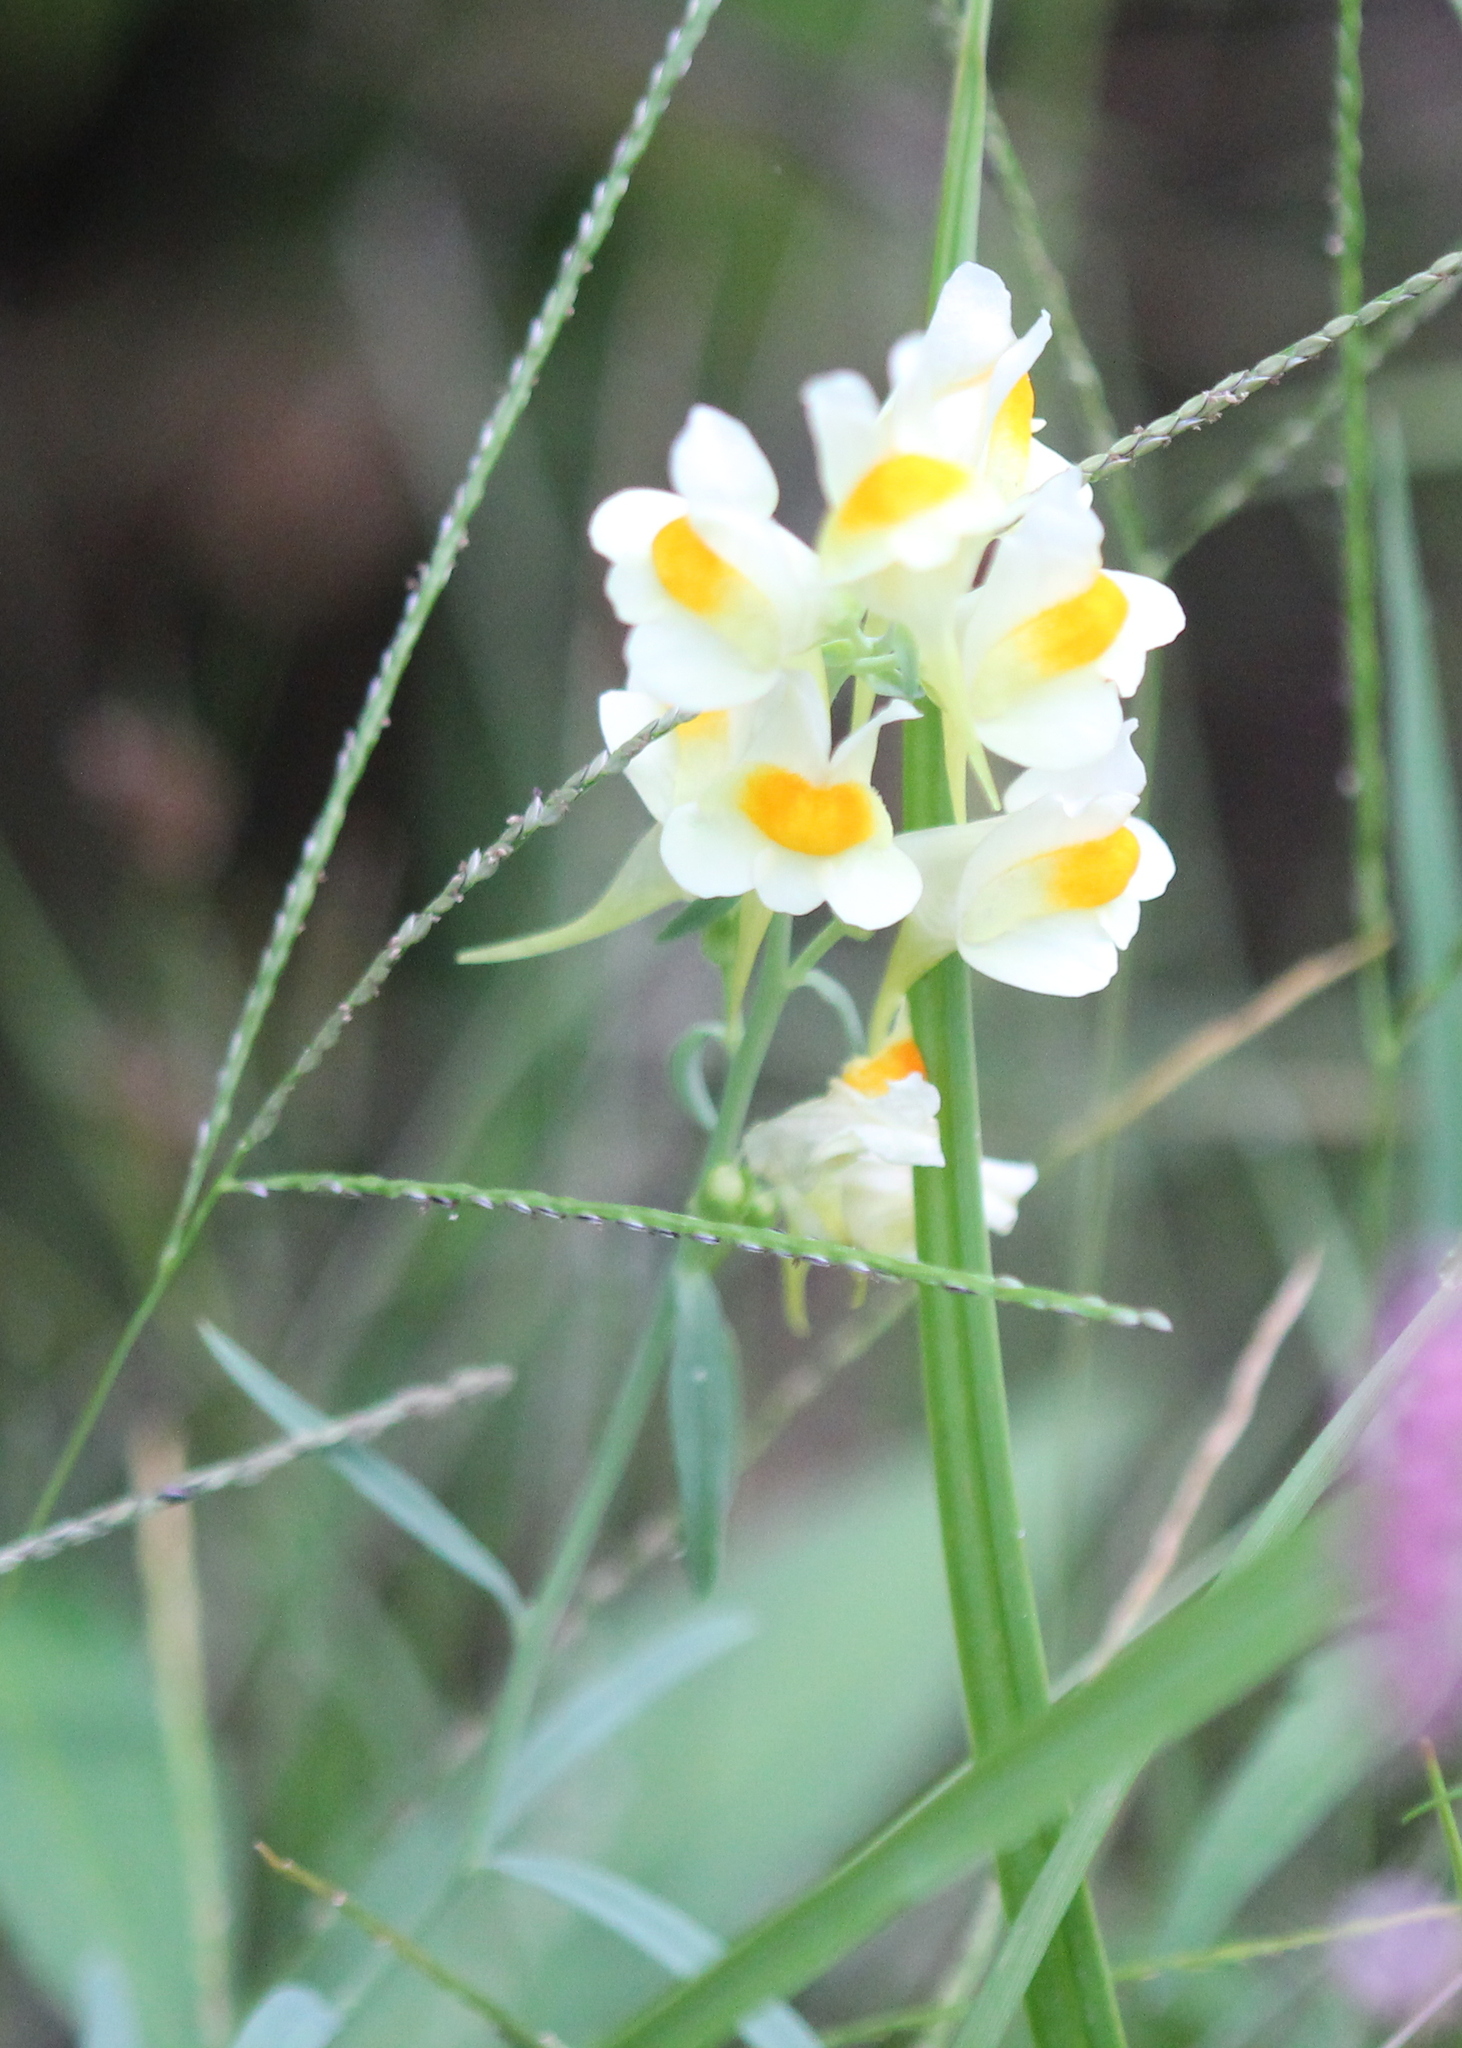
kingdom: Plantae
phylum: Tracheophyta
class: Magnoliopsida
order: Lamiales
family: Plantaginaceae
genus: Linaria
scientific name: Linaria vulgaris
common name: Butter and eggs
